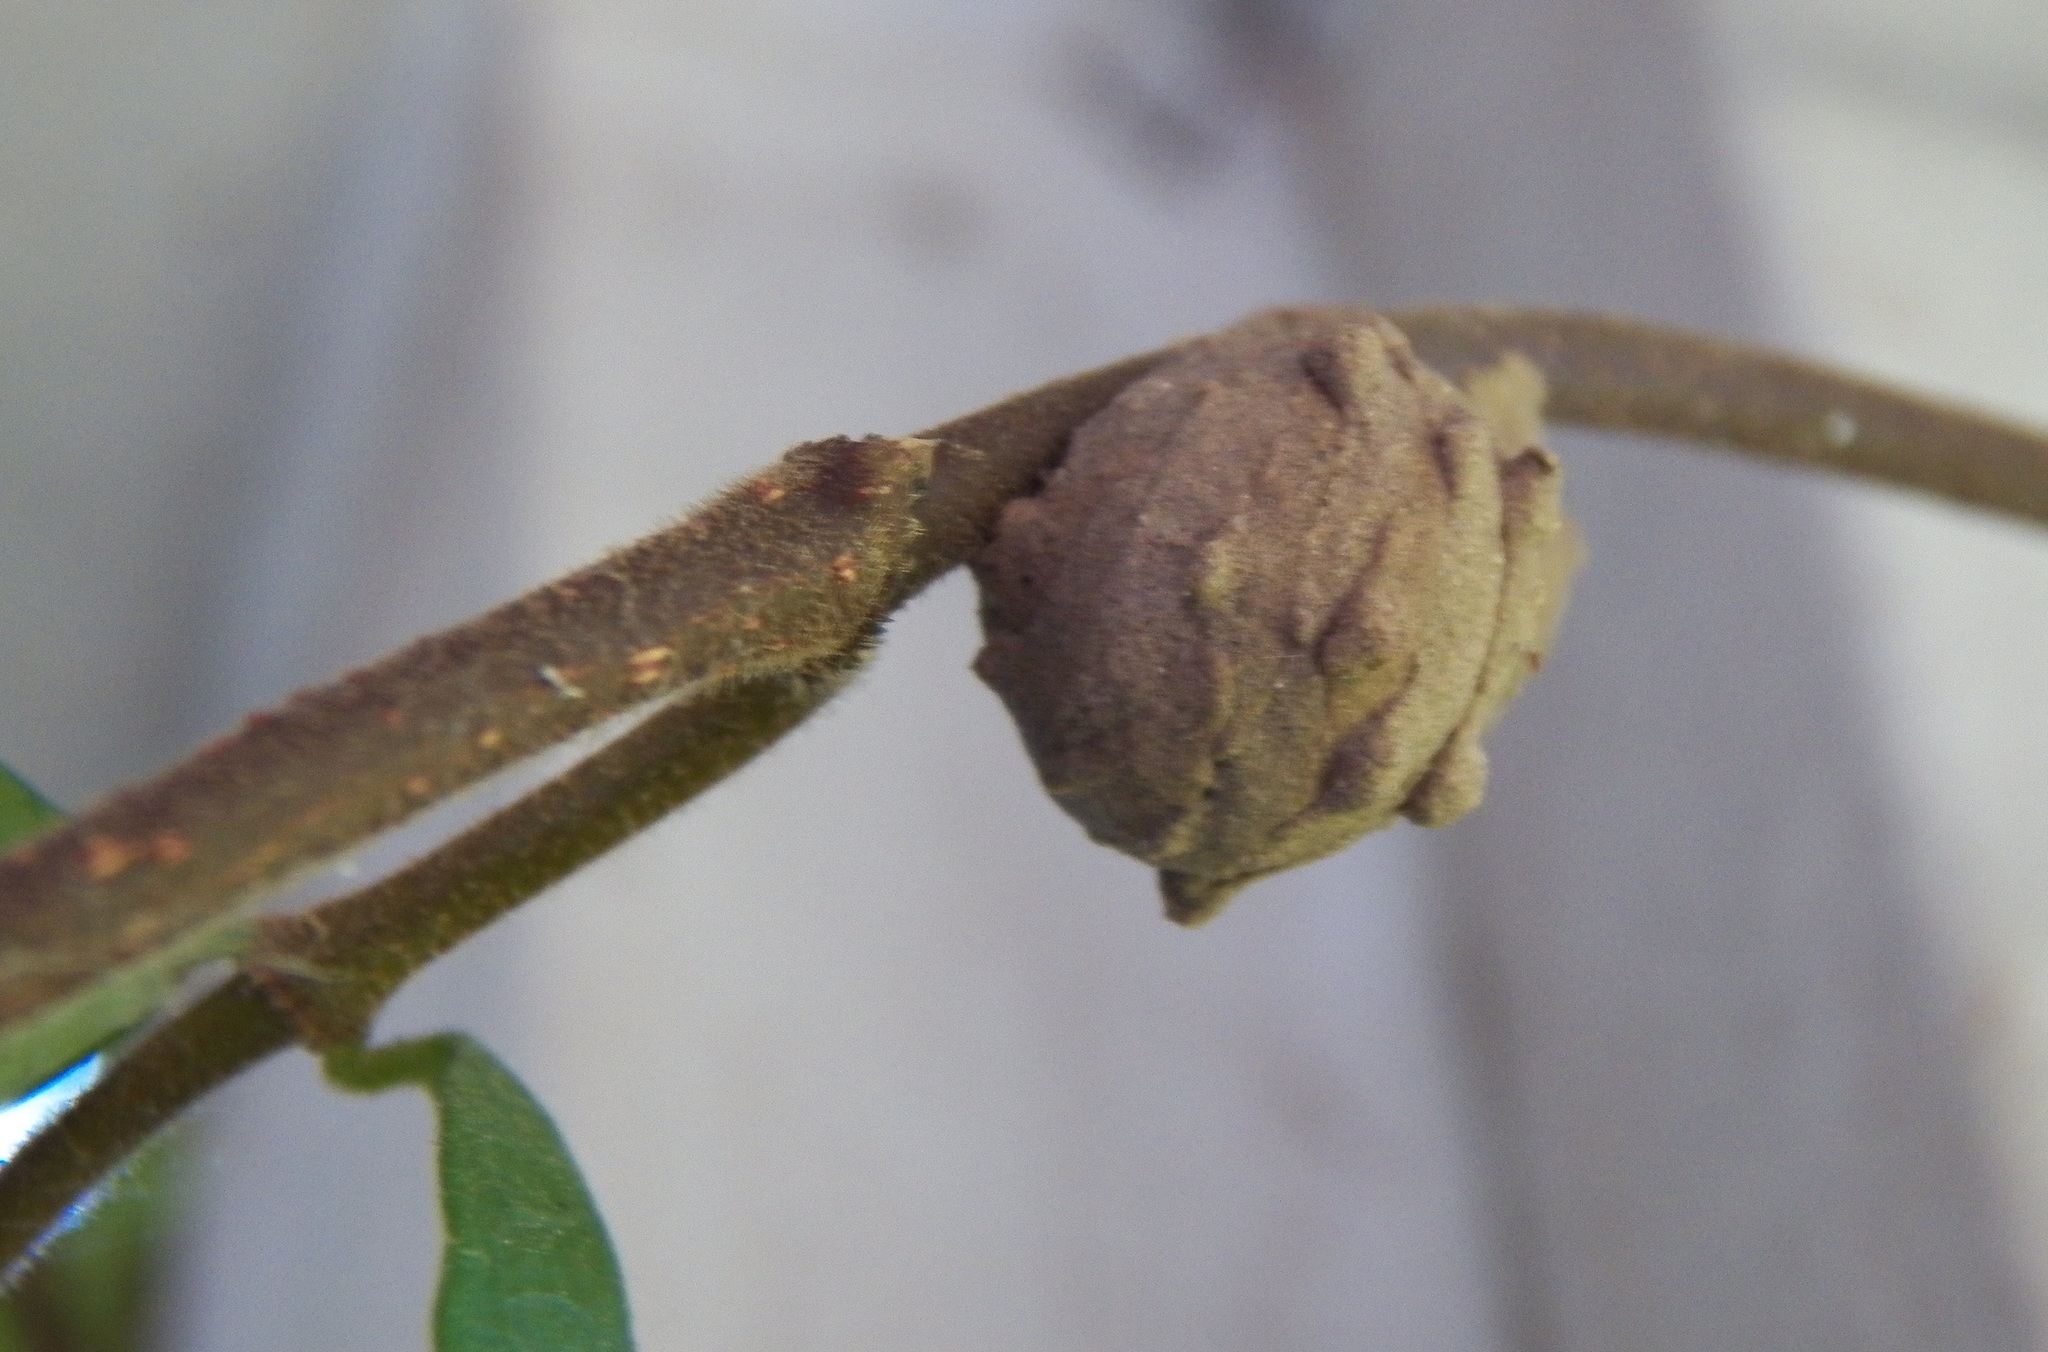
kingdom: Animalia
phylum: Arthropoda
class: Insecta
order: Hymenoptera
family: Vespidae
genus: Eumenes
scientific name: Eumenes
